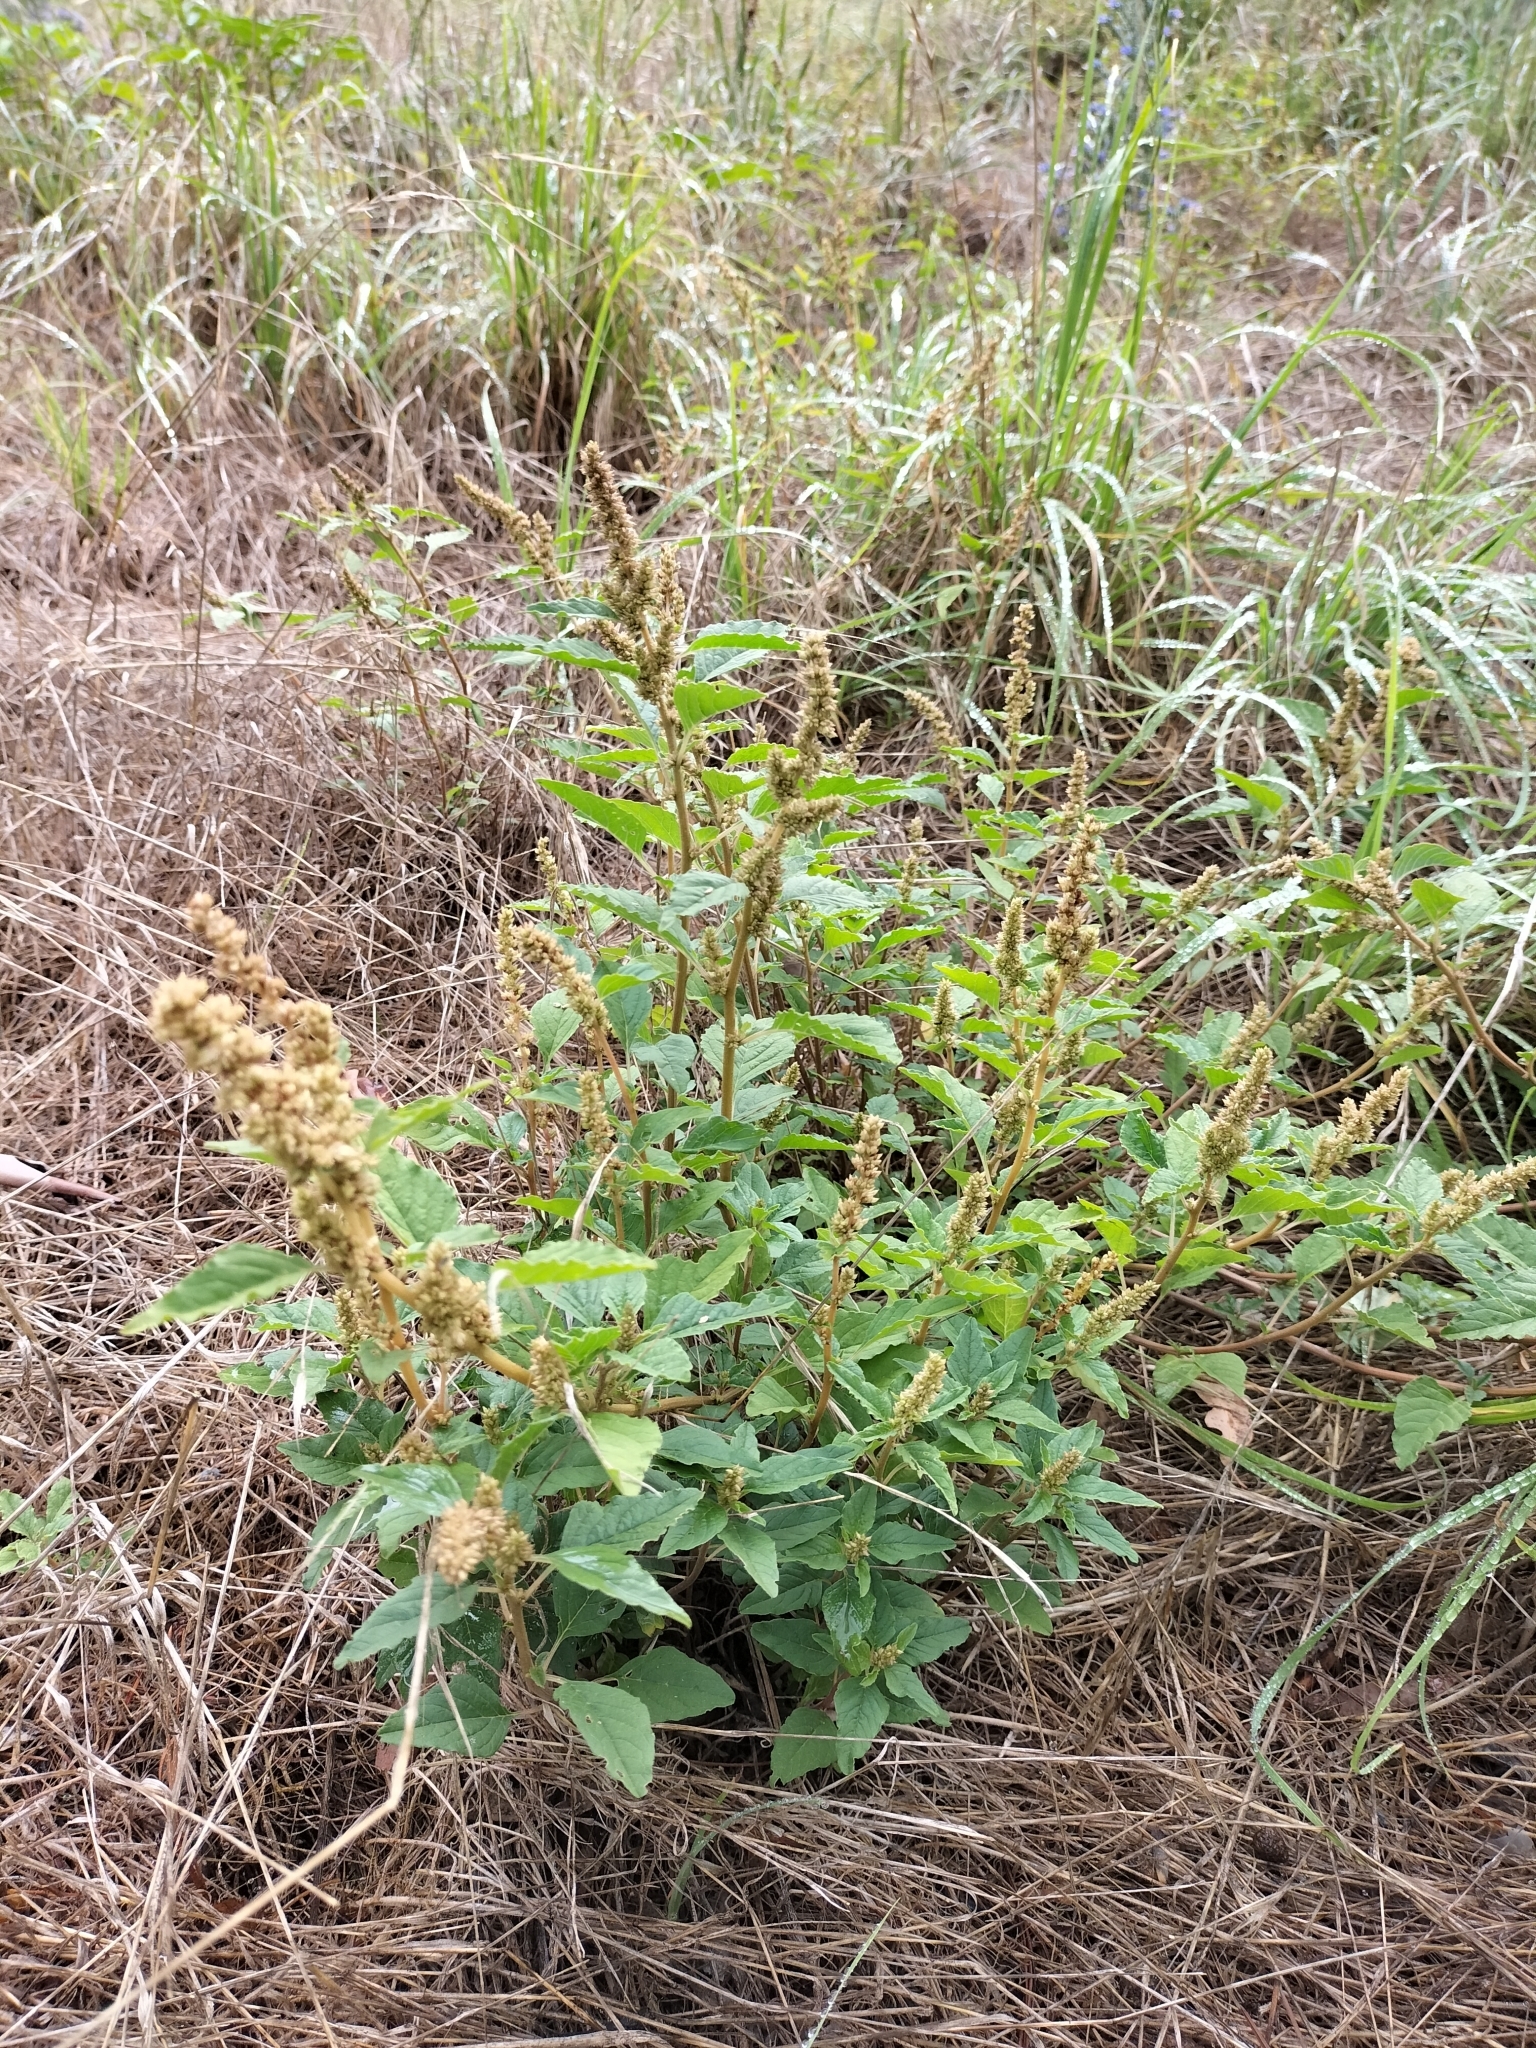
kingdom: Plantae
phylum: Tracheophyta
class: Magnoliopsida
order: Caryophyllales
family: Amaranthaceae
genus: Amaranthus
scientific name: Amaranthus deflexus
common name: Perennial pigweed
